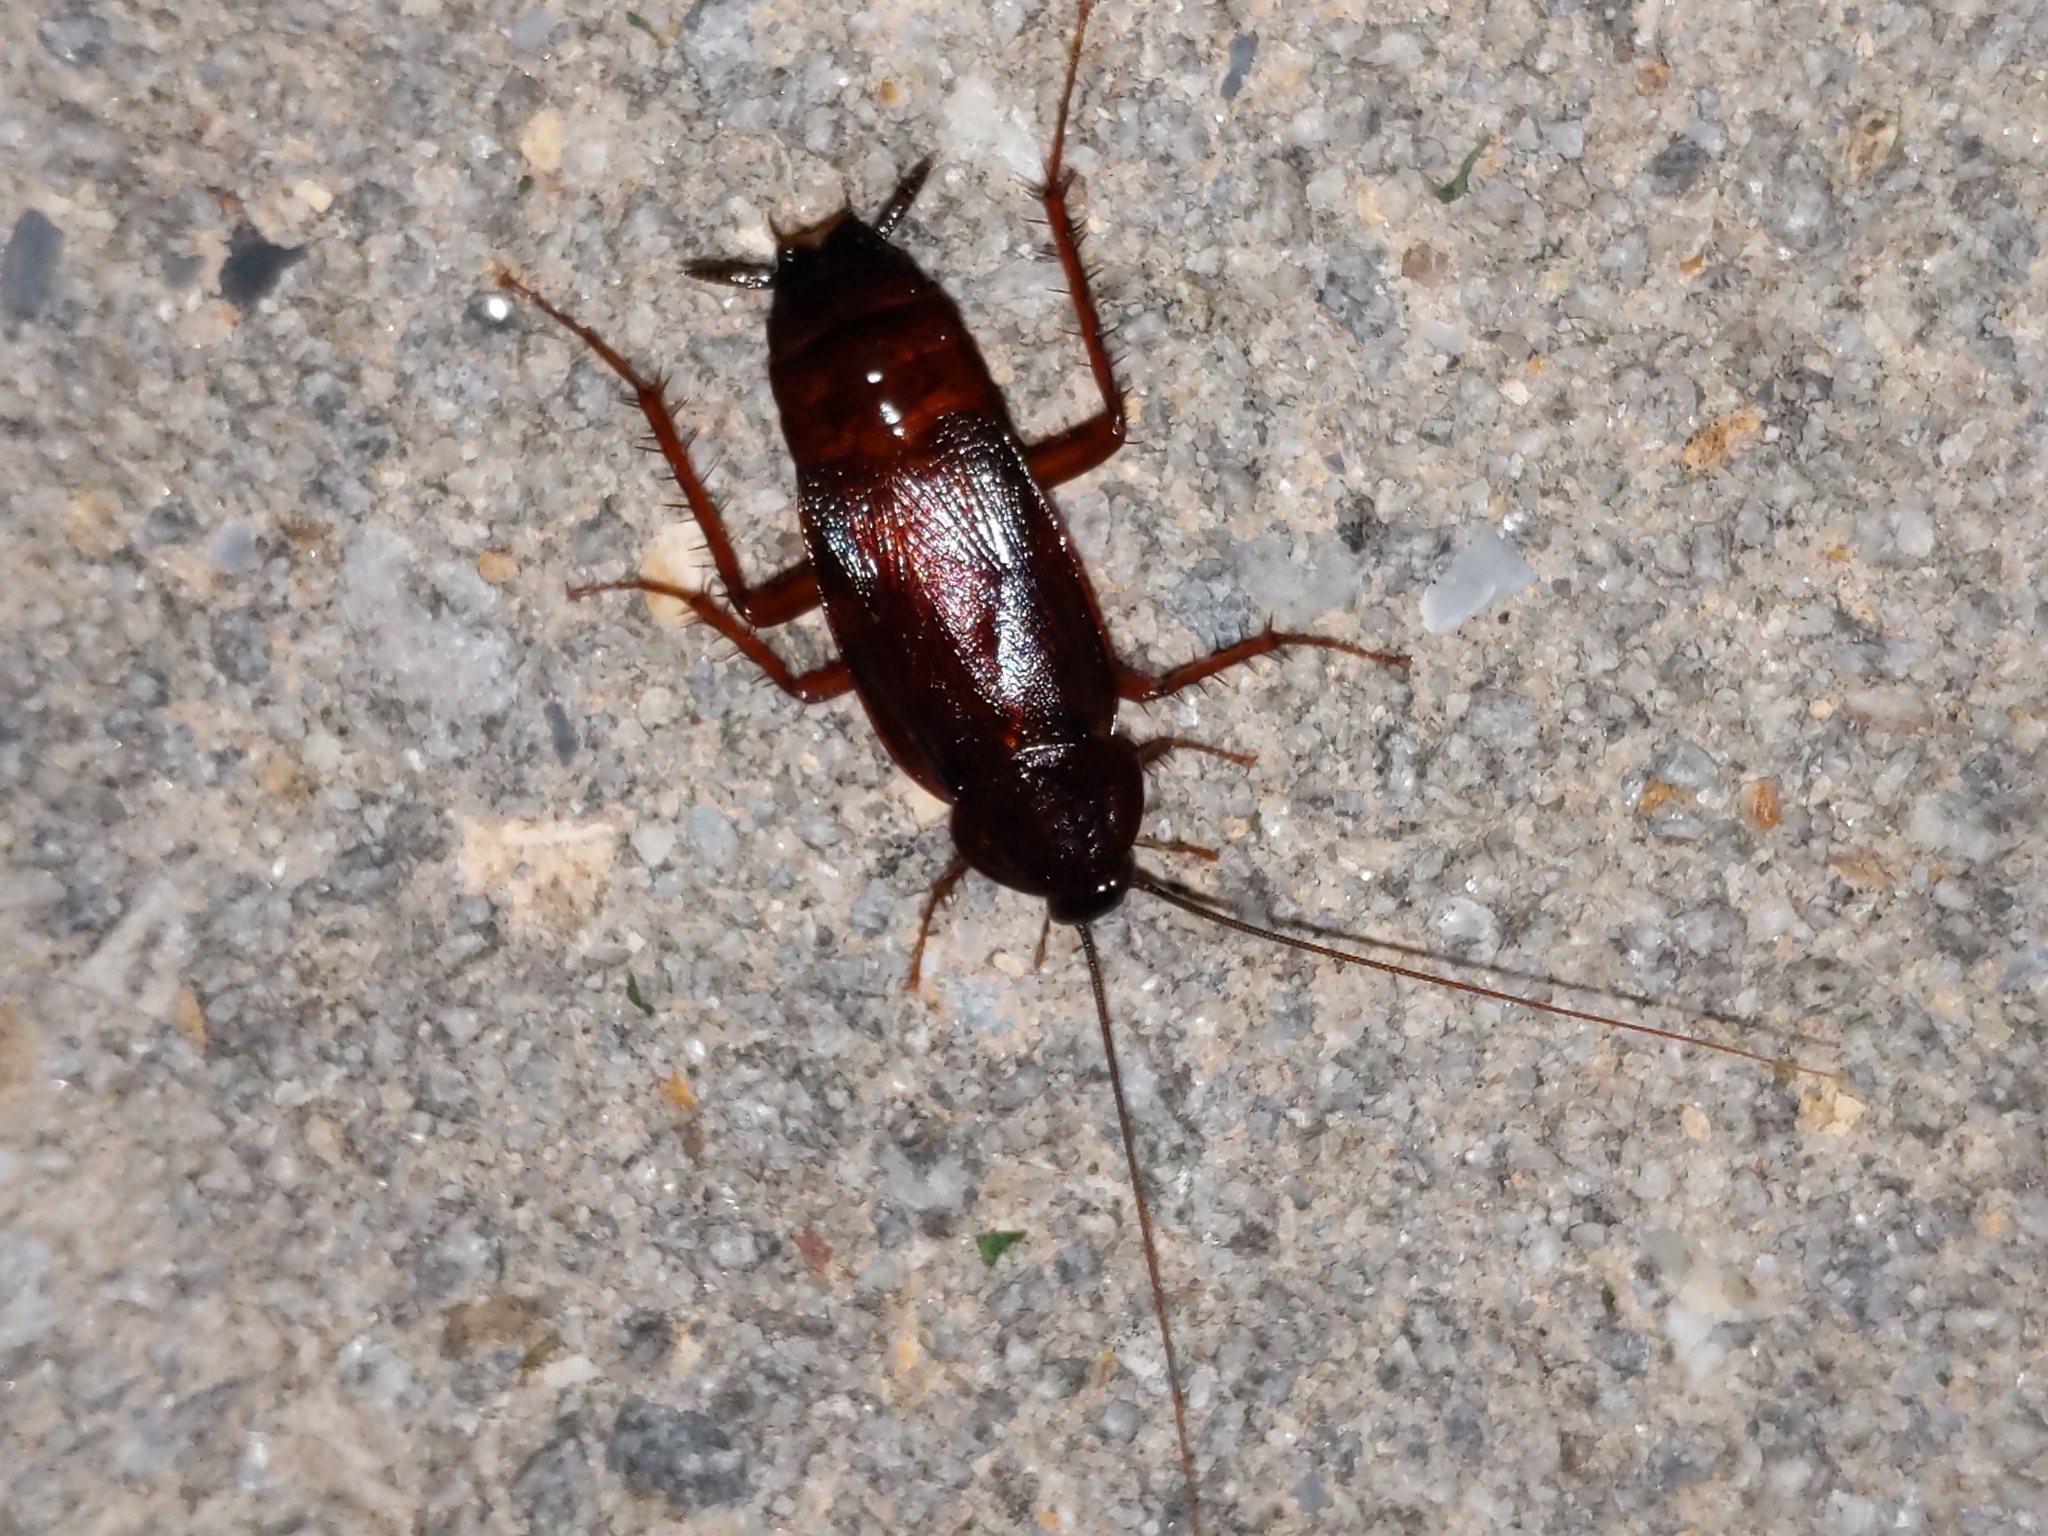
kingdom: Animalia
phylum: Arthropoda
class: Insecta
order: Blattodea
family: Blattidae
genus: Blatta
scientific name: Blatta orientalis
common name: Oriental cockroach
